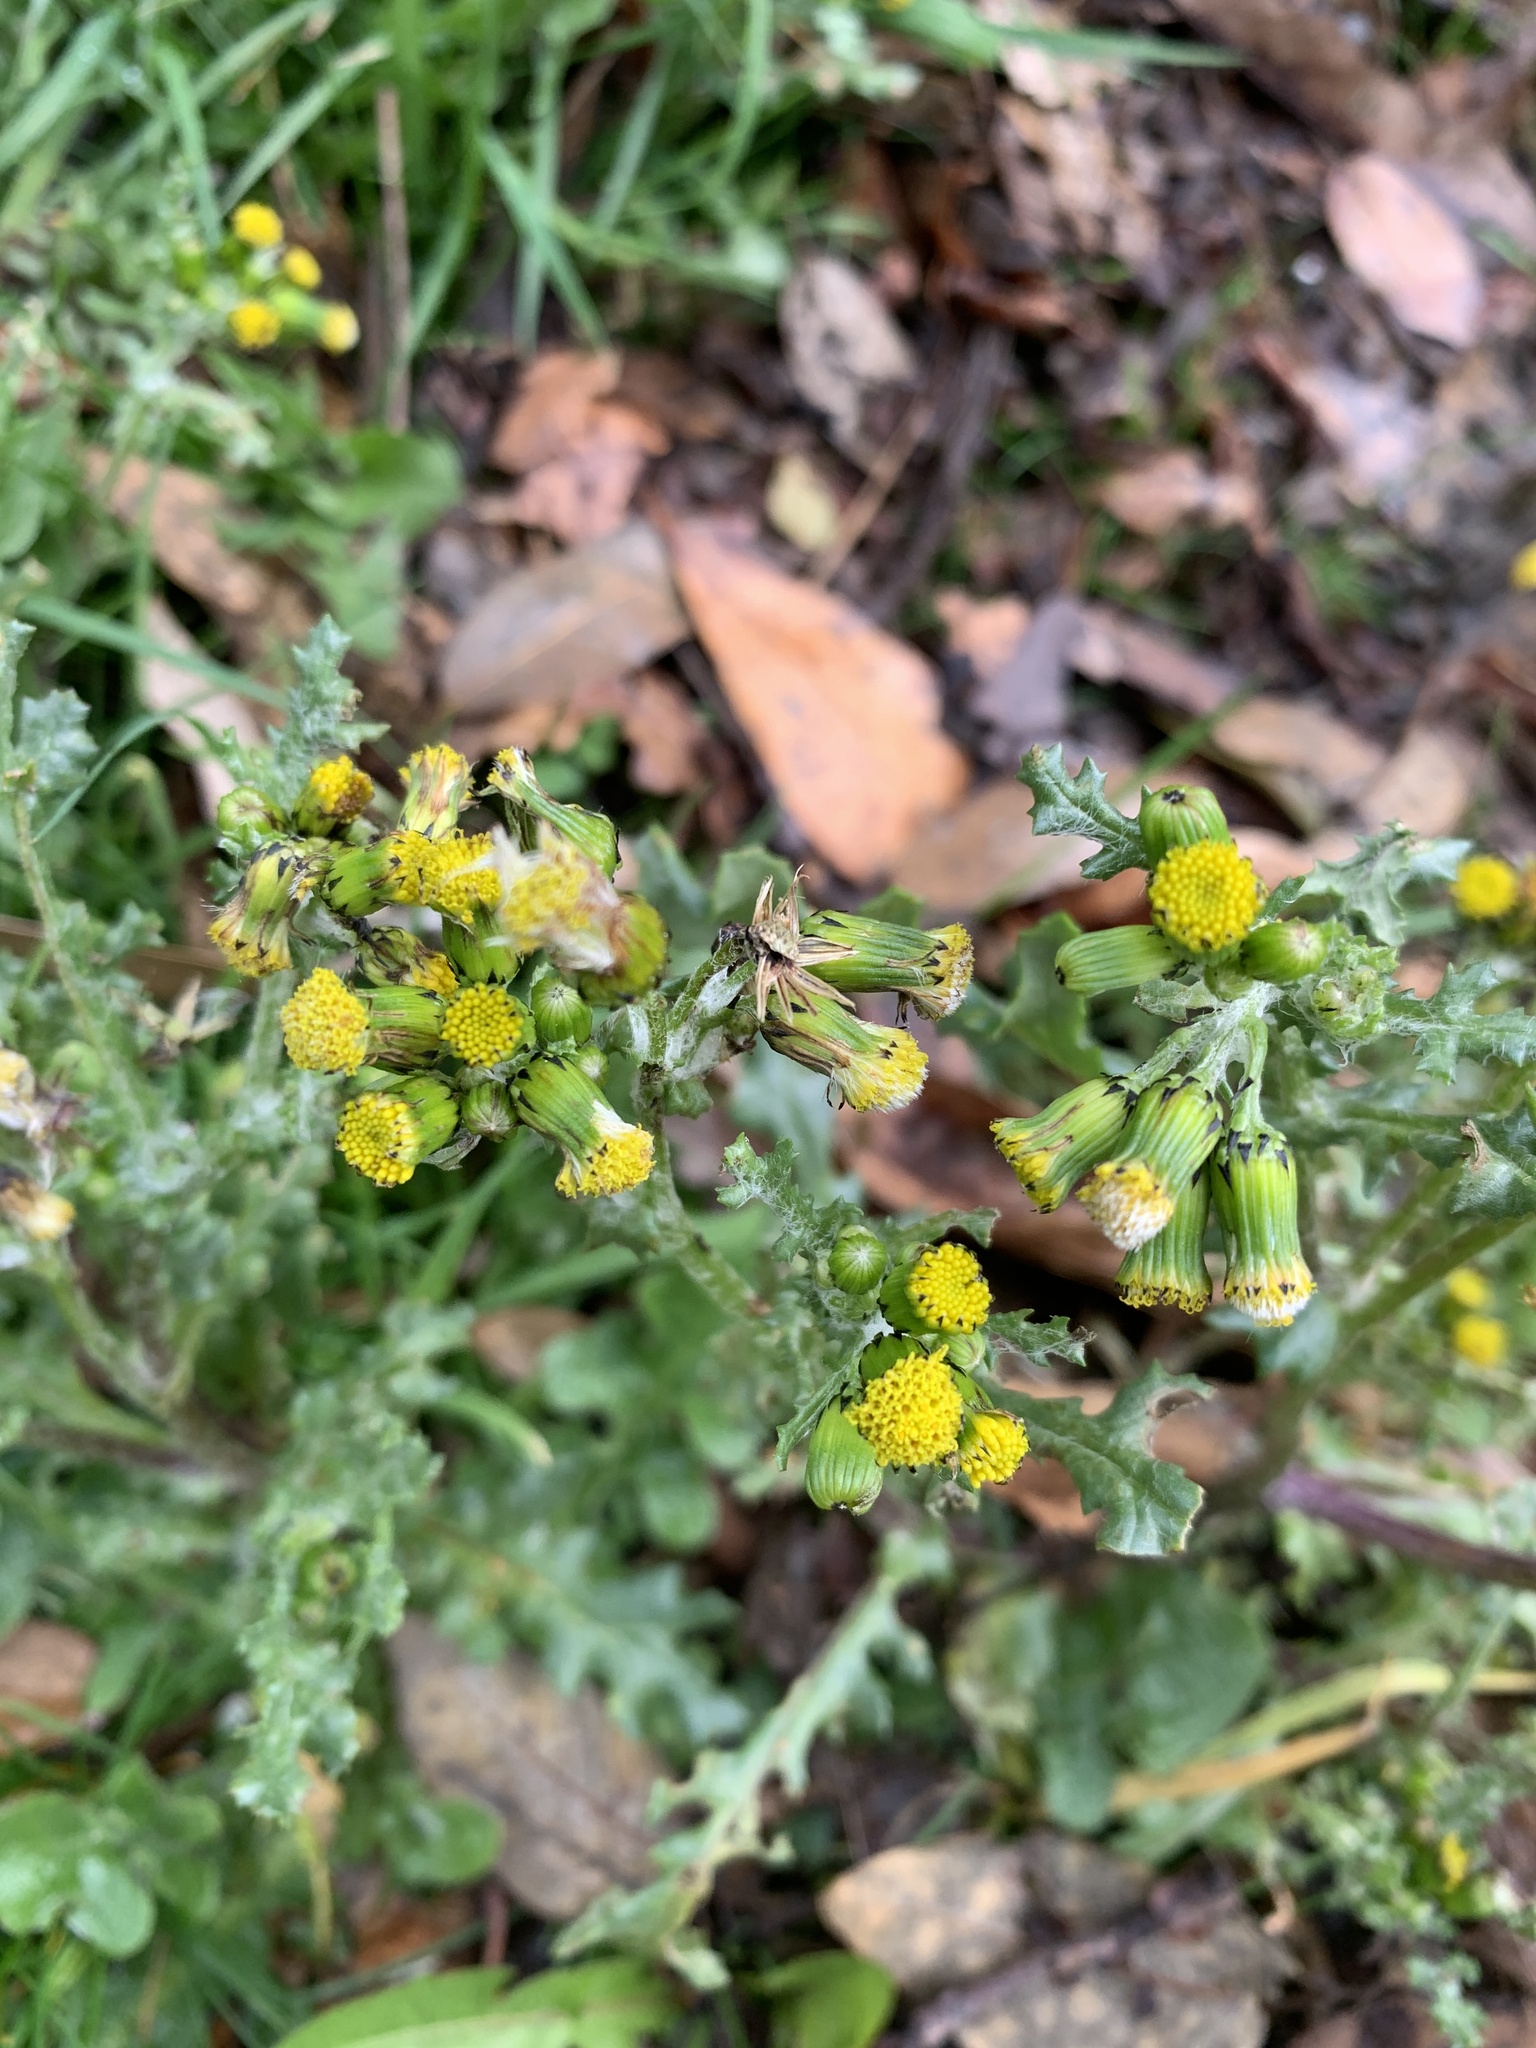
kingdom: Plantae
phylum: Tracheophyta
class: Magnoliopsida
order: Asterales
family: Asteraceae
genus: Senecio
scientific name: Senecio vulgaris
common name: Old-man-in-the-spring
